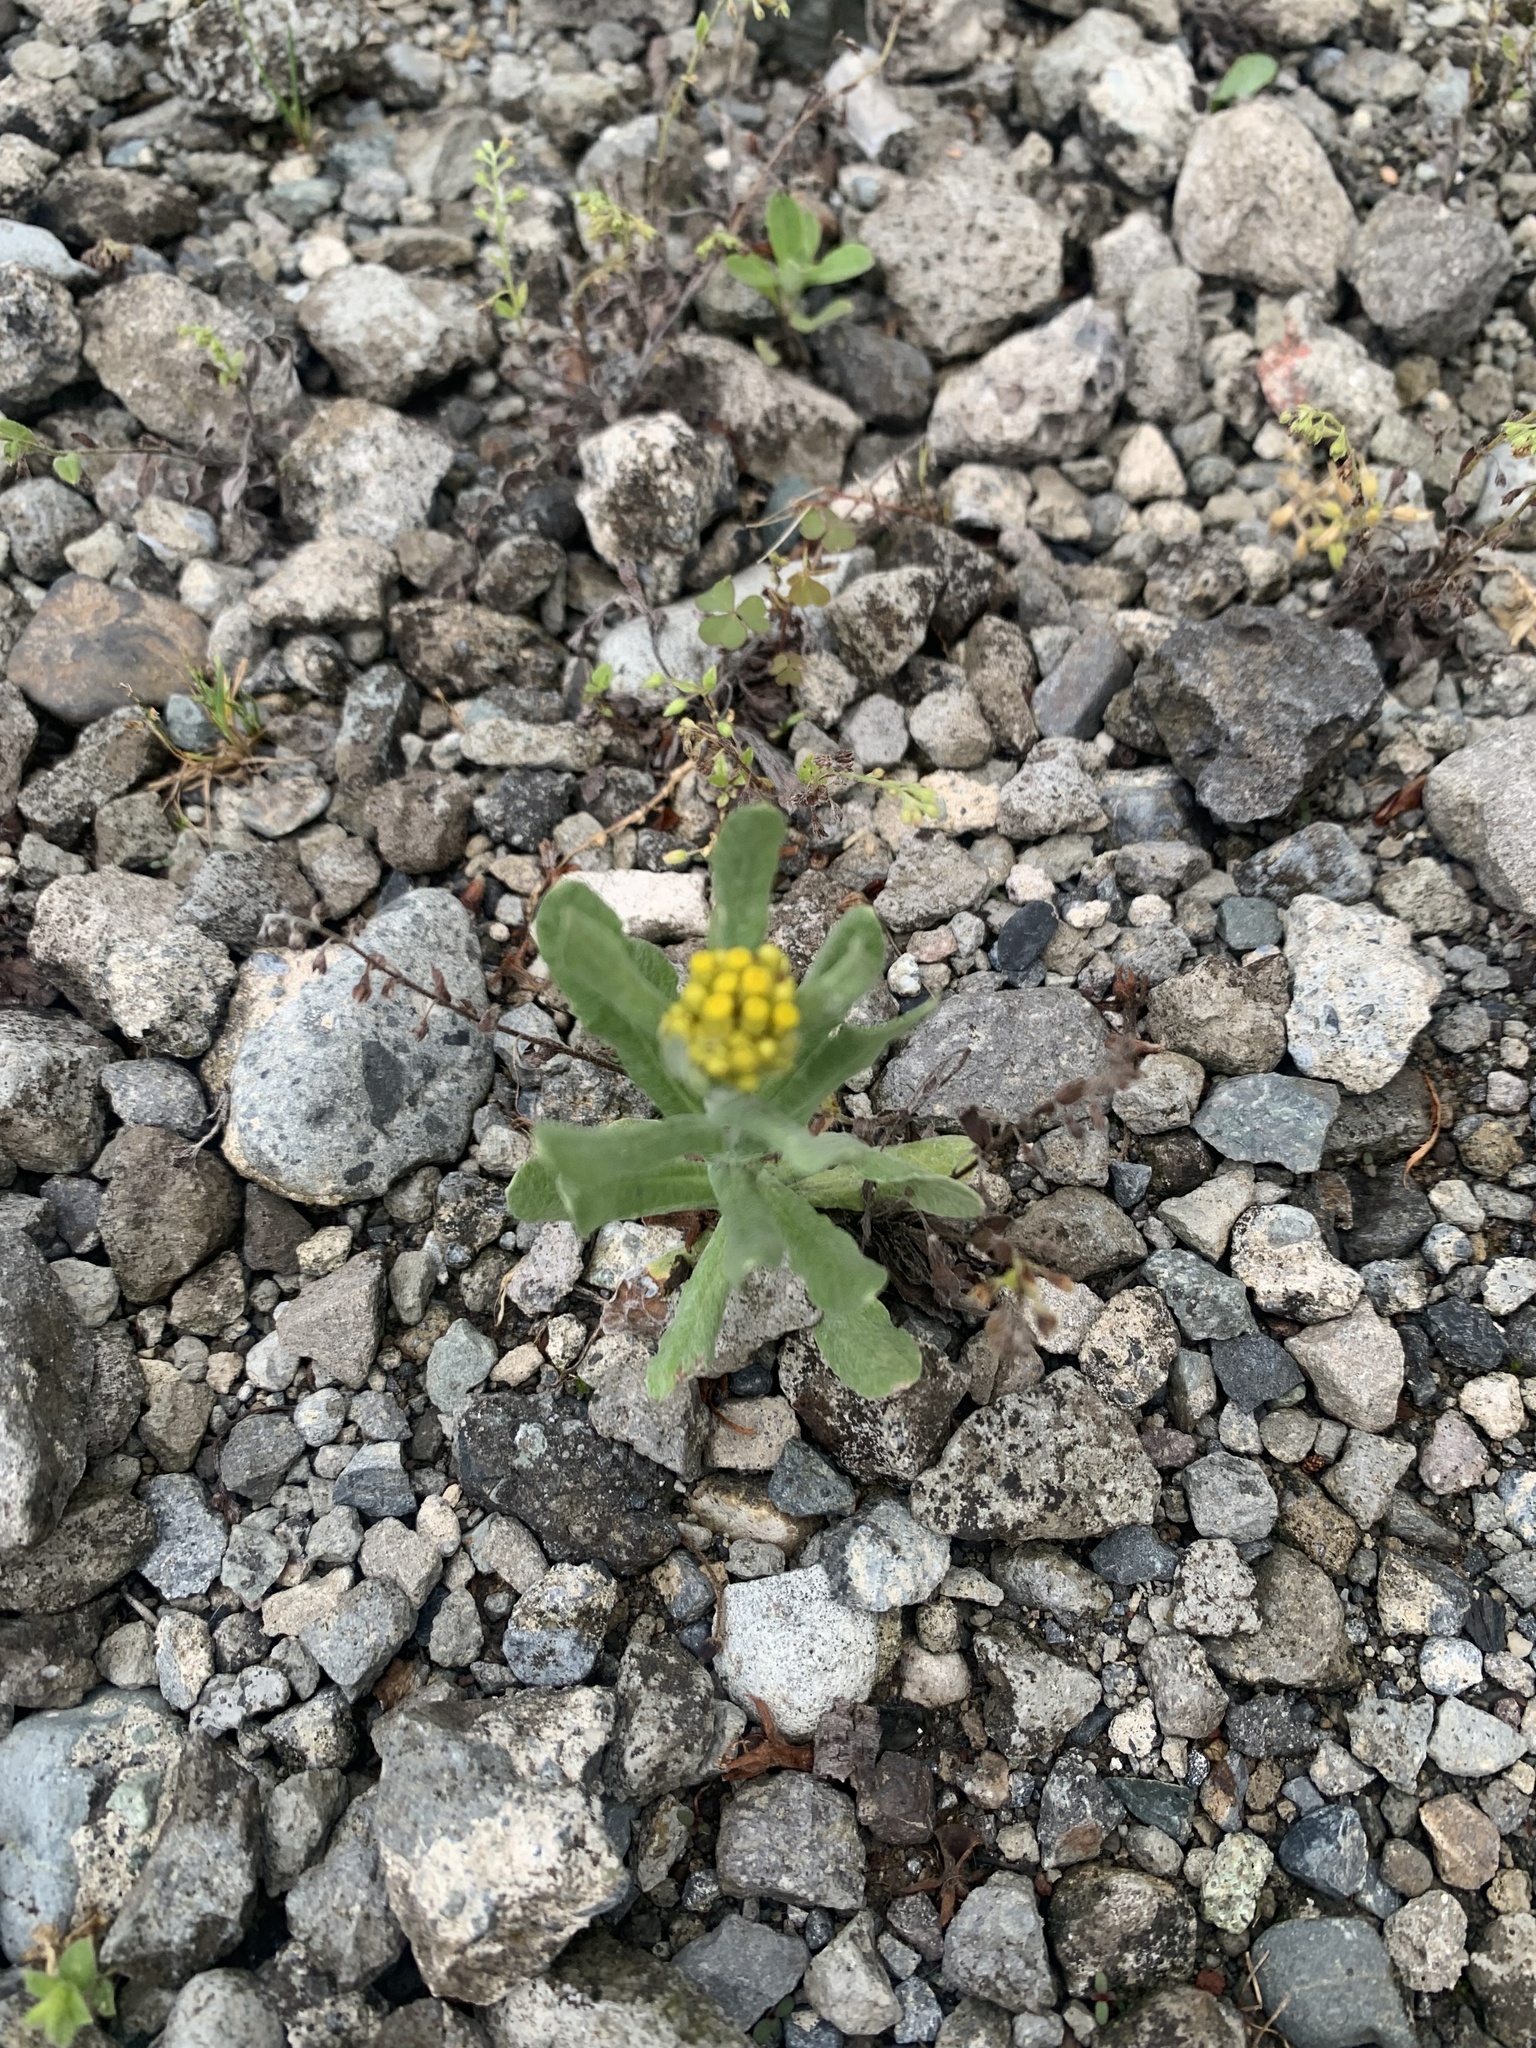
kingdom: Plantae
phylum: Tracheophyta
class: Magnoliopsida
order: Asterales
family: Asteraceae
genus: Pseudognaphalium
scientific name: Pseudognaphalium affine
